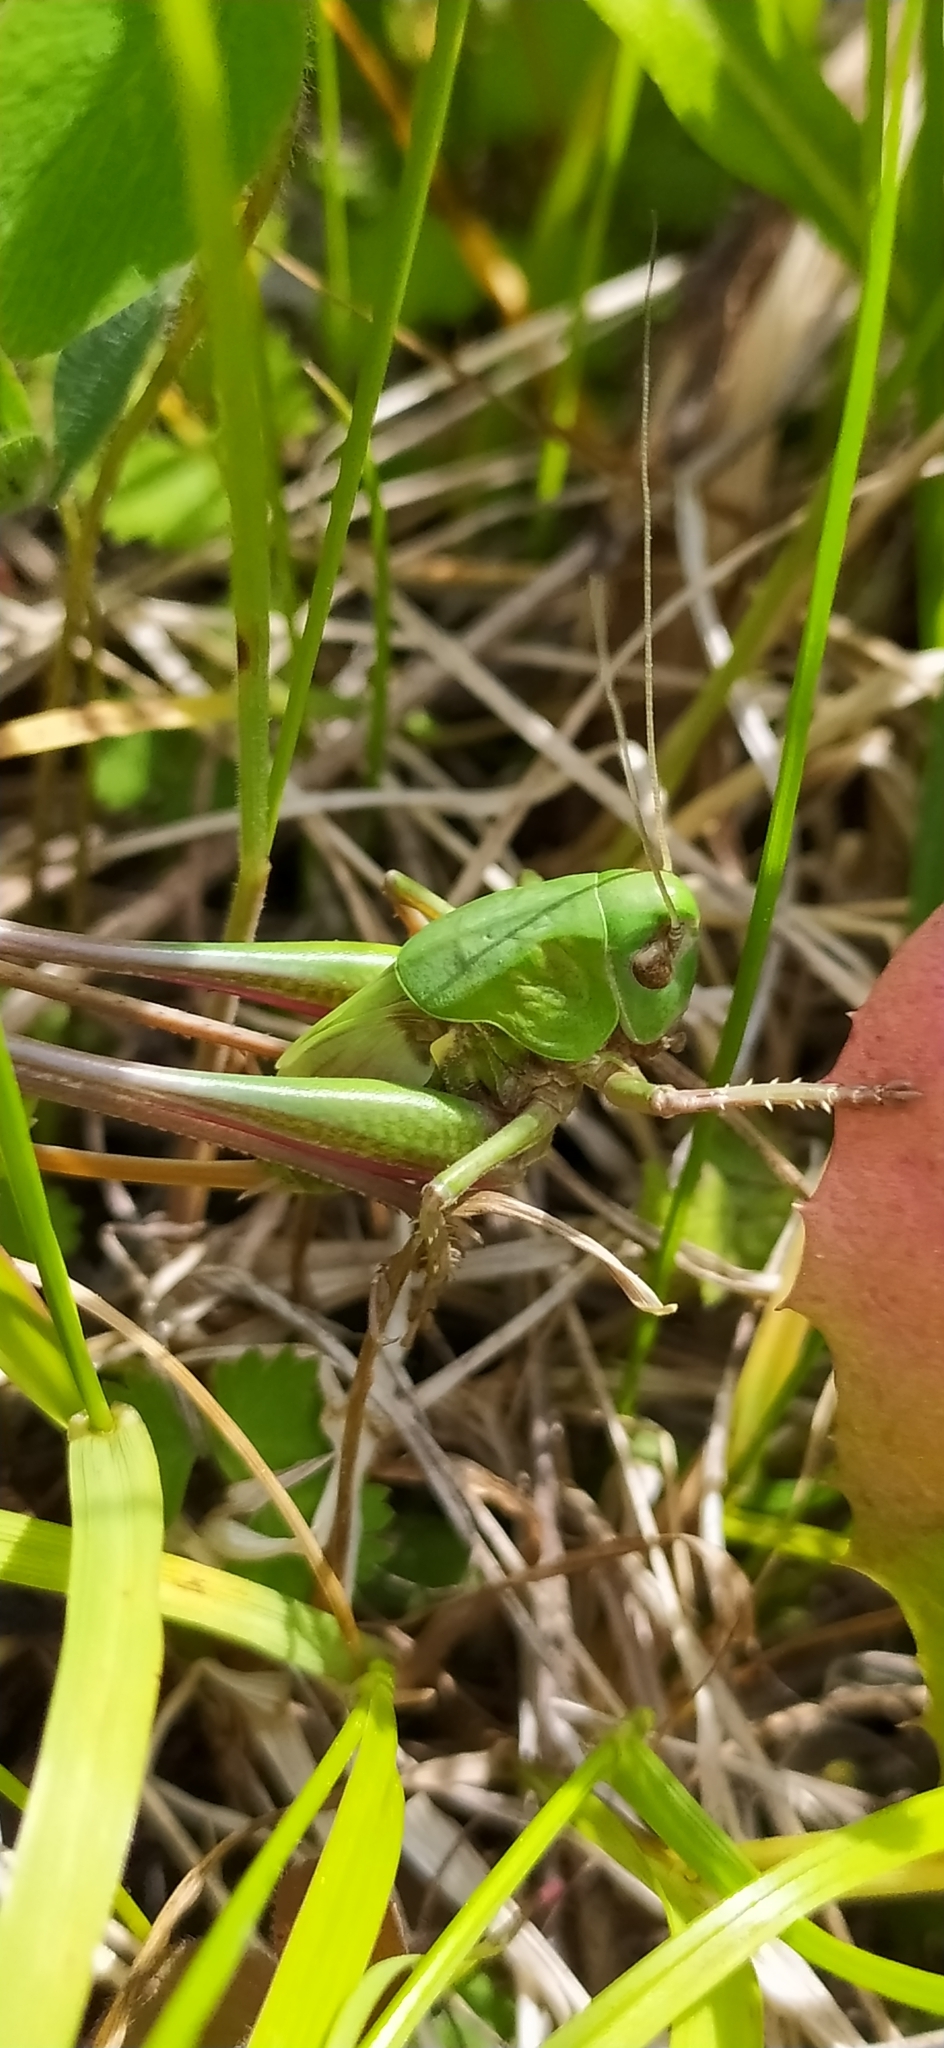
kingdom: Animalia
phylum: Arthropoda
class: Insecta
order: Orthoptera
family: Tettigoniidae
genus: Decticus
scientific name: Decticus verrucivorus
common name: Wart-biter
